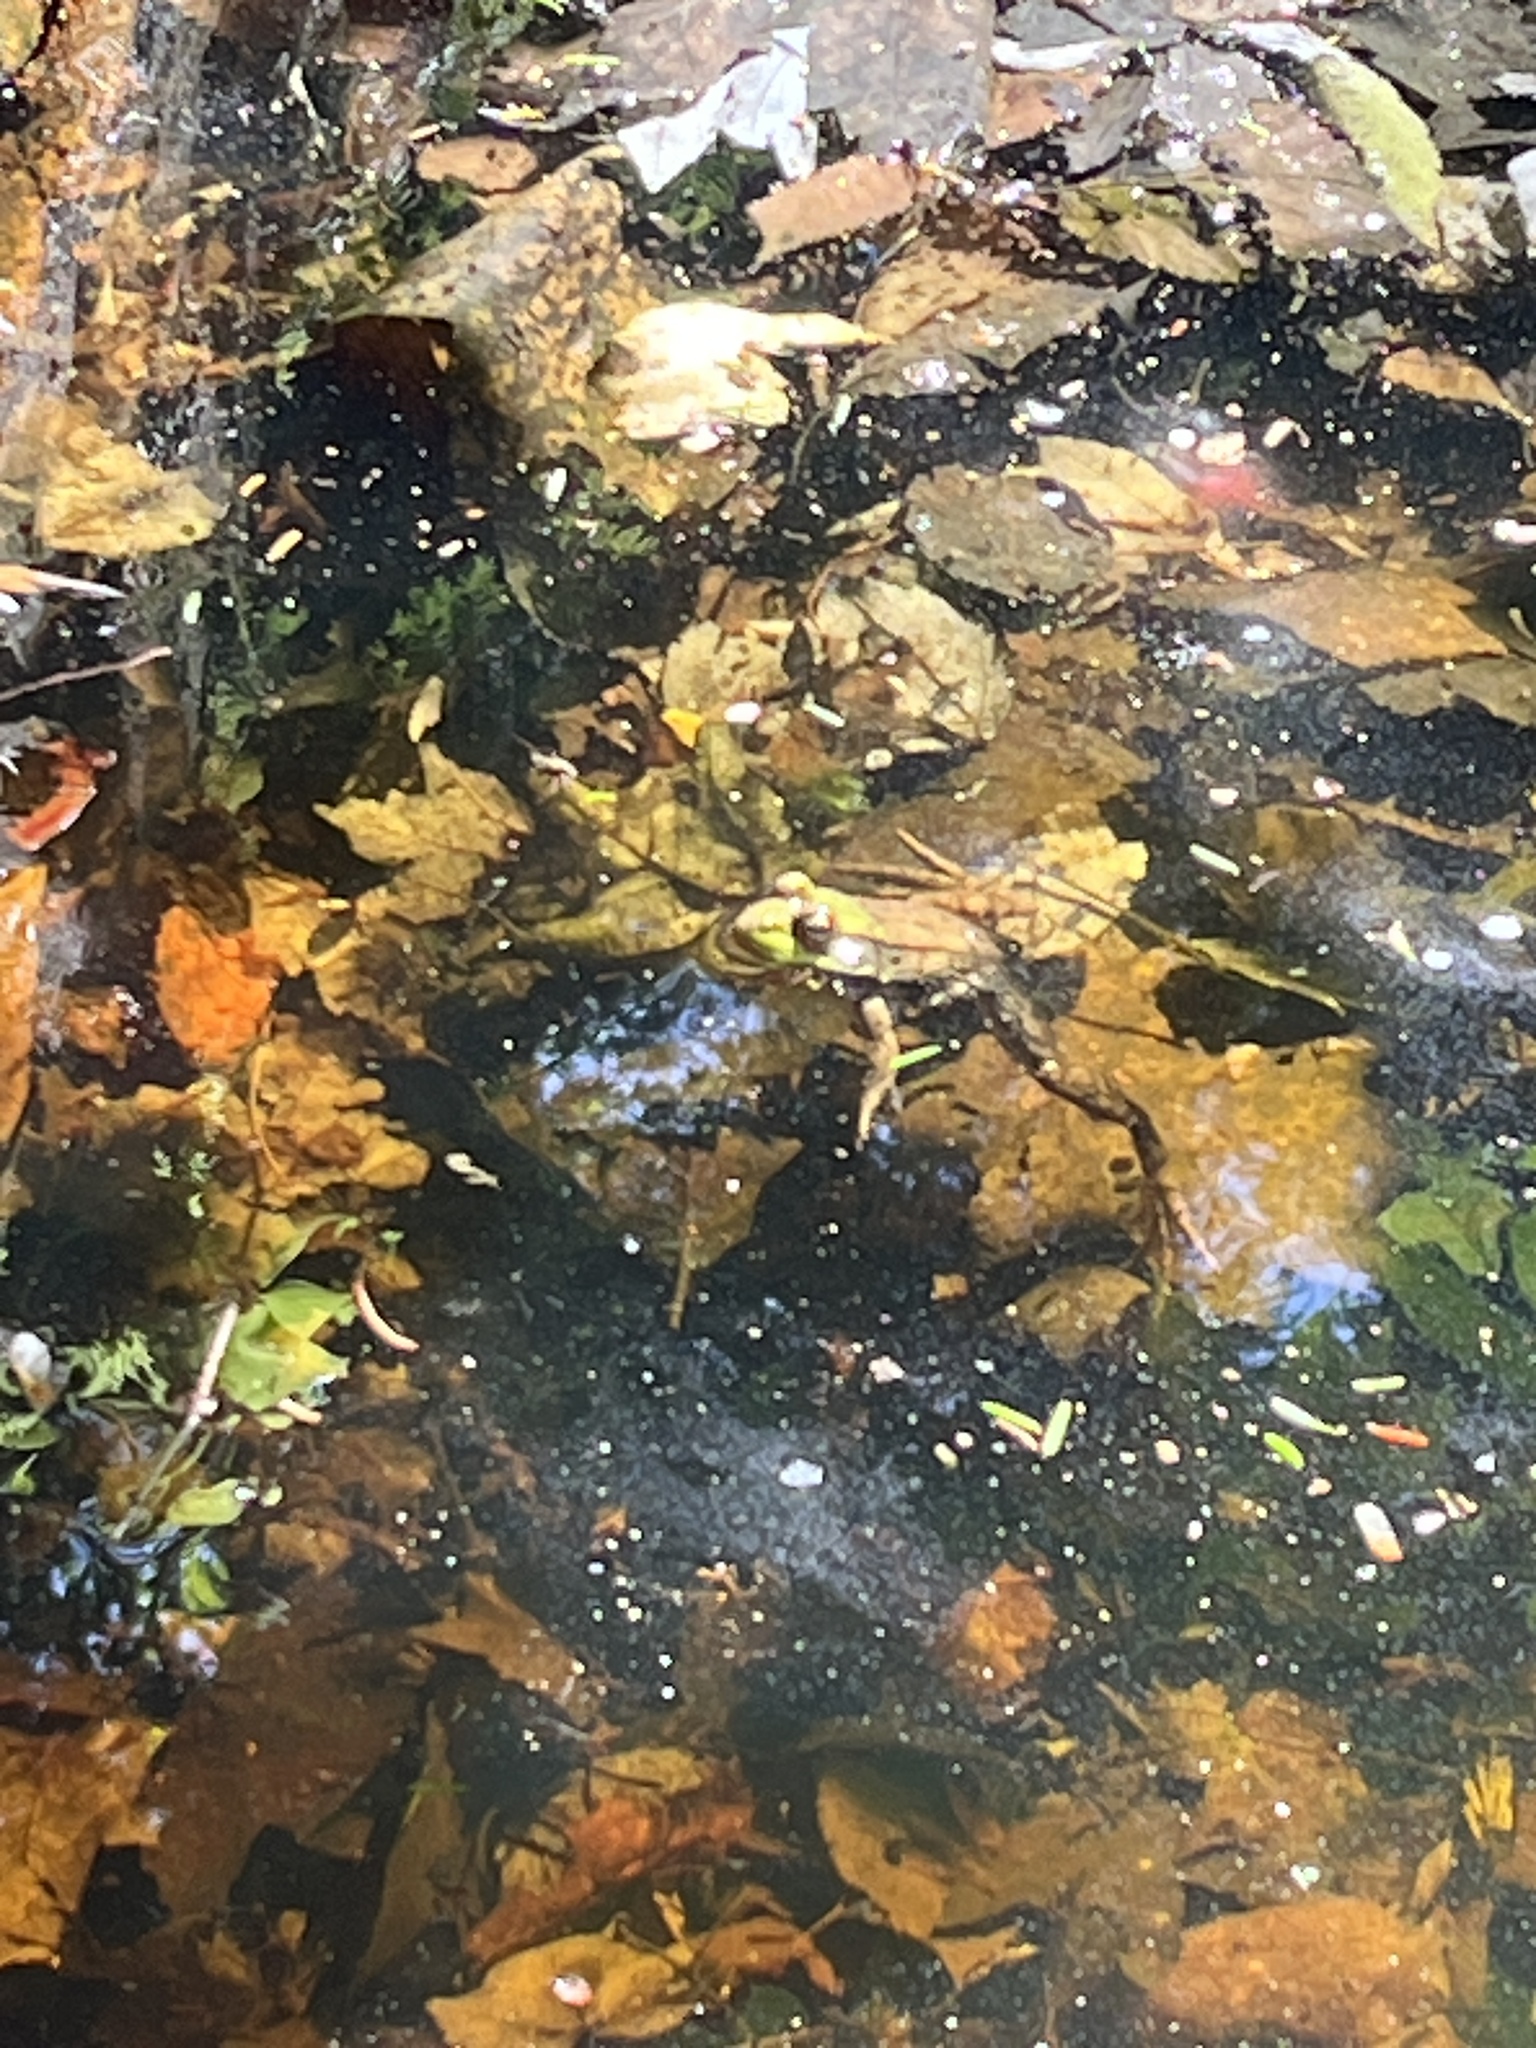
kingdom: Animalia
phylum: Chordata
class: Amphibia
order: Anura
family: Ranidae
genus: Lithobates
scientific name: Lithobates clamitans
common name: Green frog
